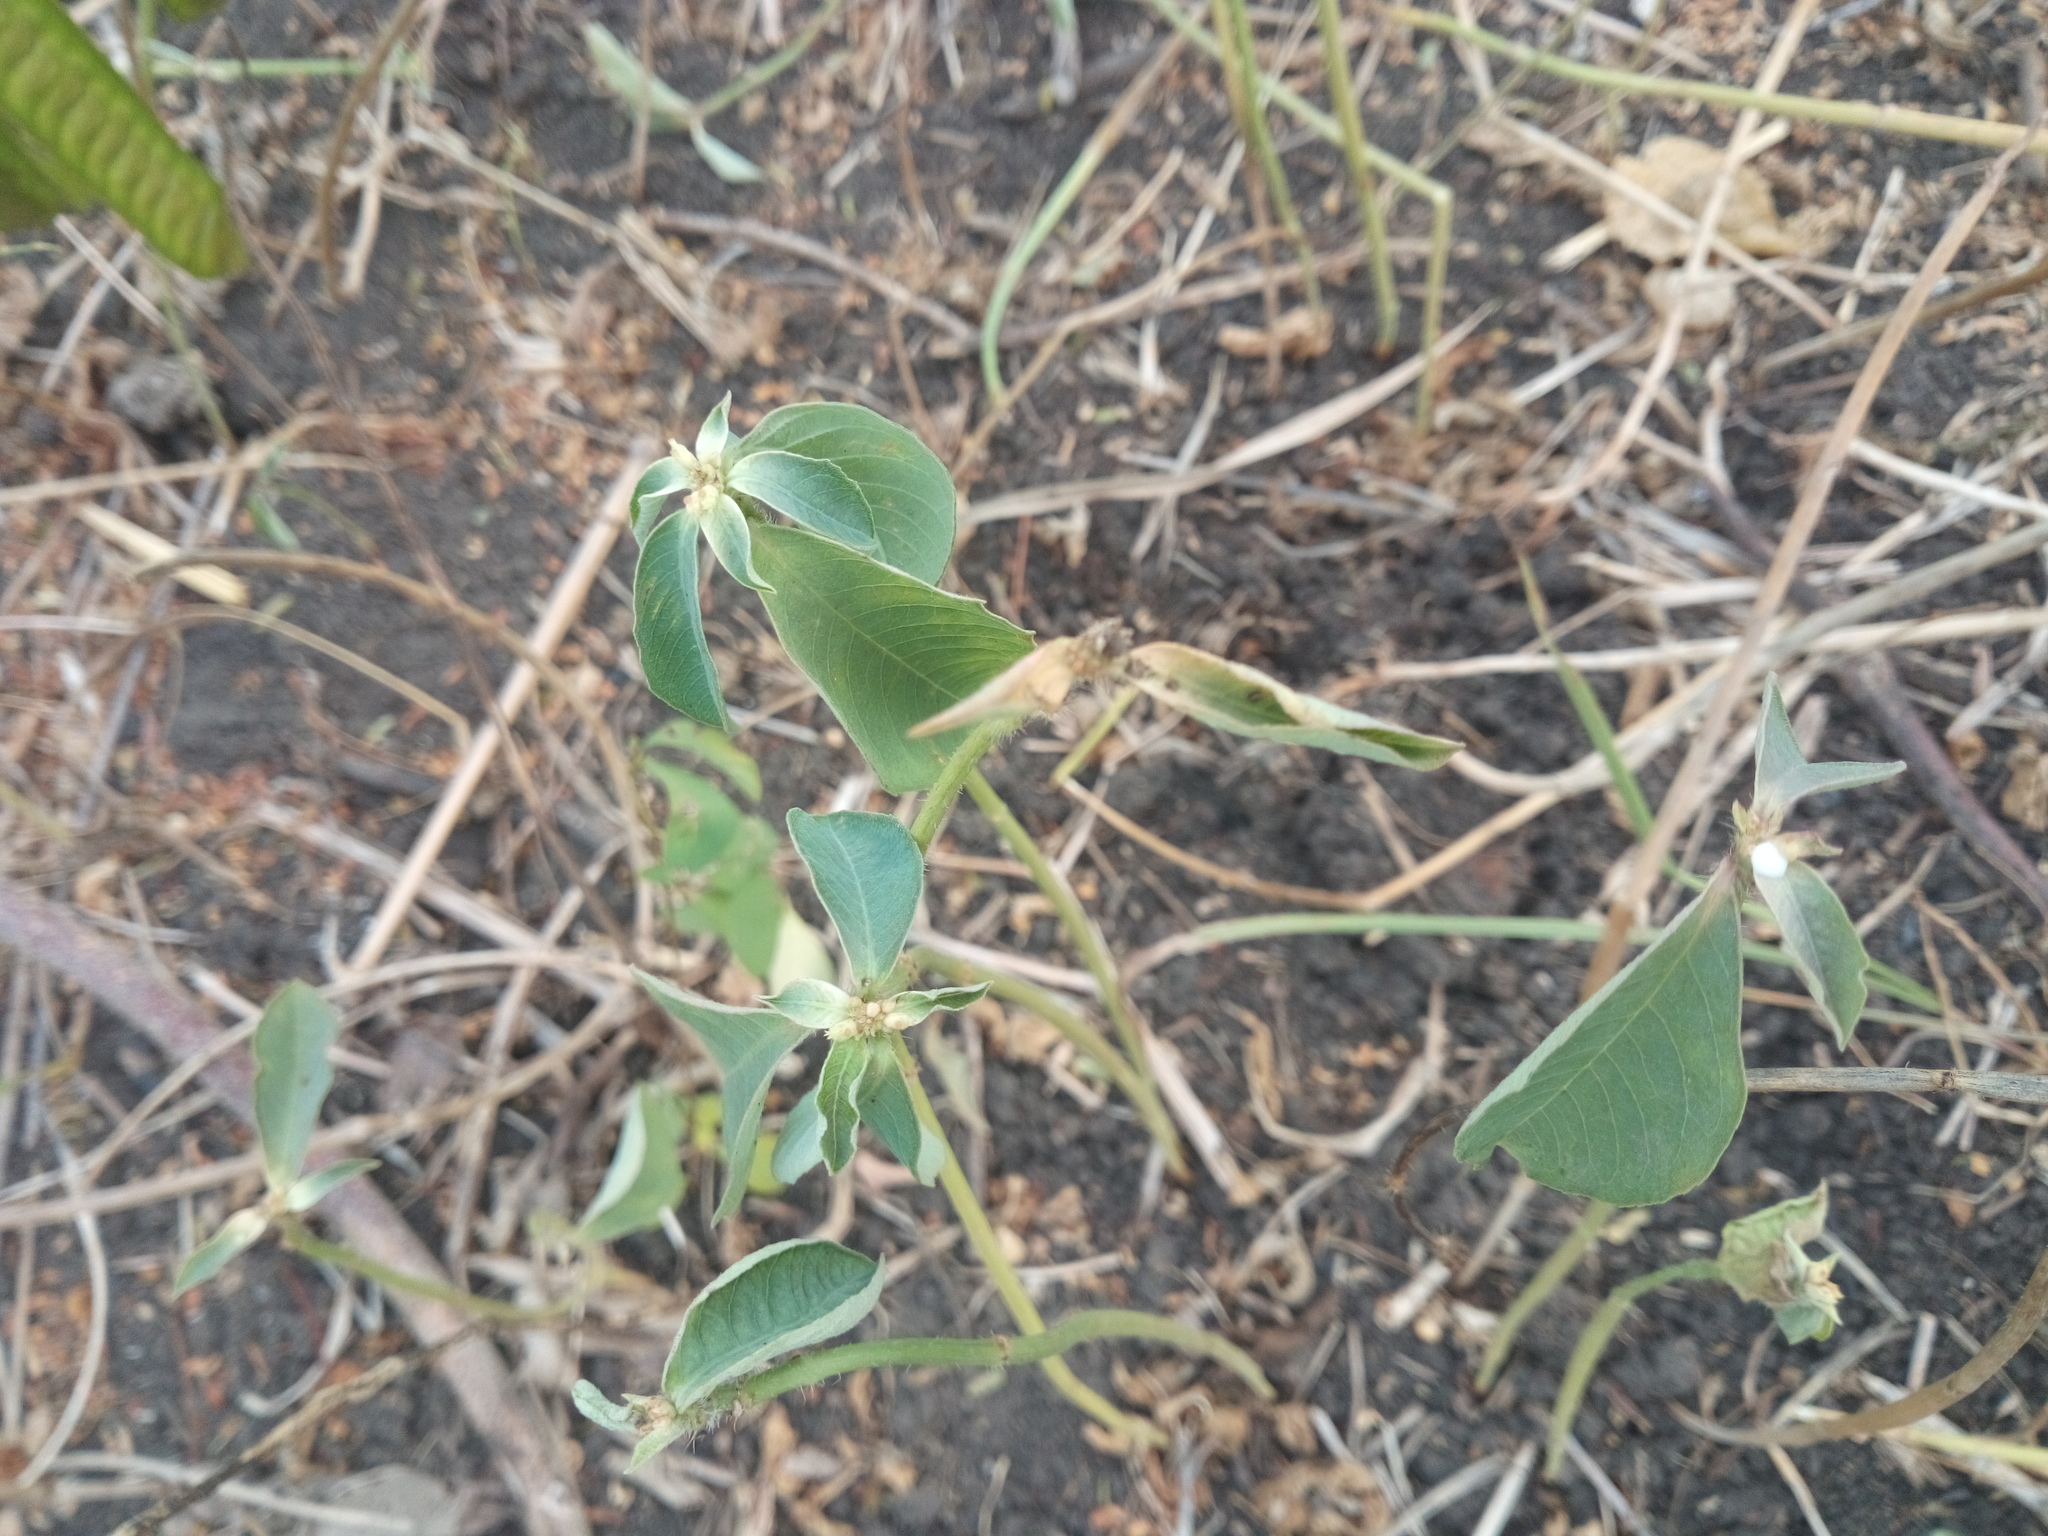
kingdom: Plantae
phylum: Tracheophyta
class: Magnoliopsida
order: Malpighiales
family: Euphorbiaceae
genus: Euphorbia
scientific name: Euphorbia heterophylla
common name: Mexican fireplant
